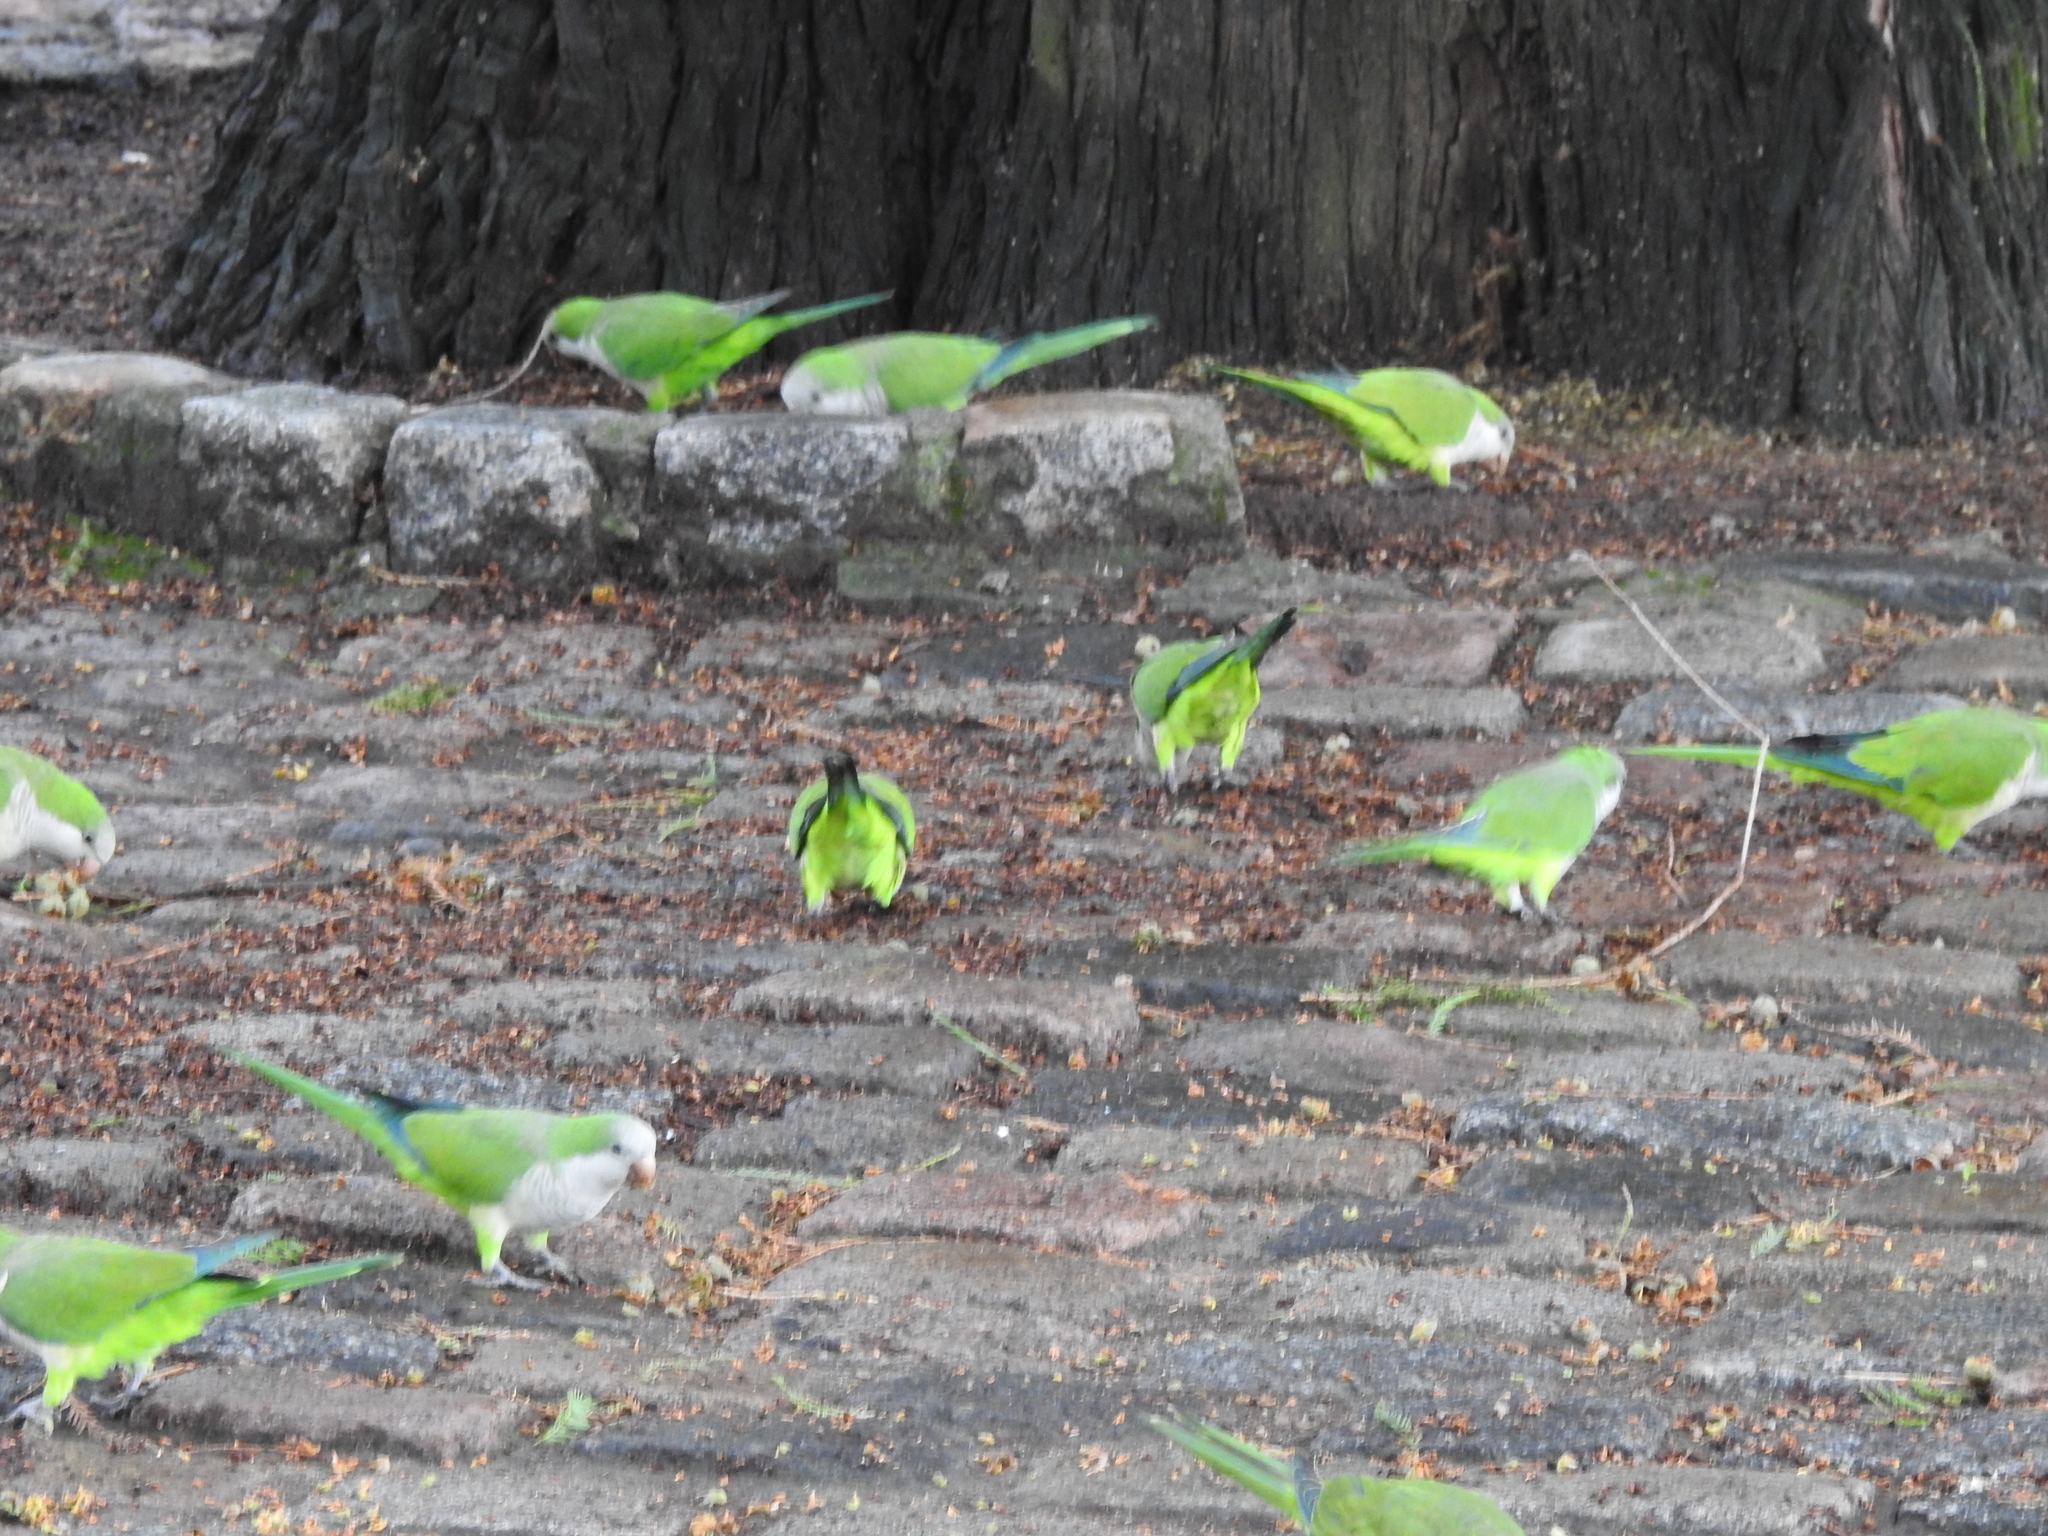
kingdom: Animalia
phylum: Chordata
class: Aves
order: Psittaciformes
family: Psittacidae
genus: Myiopsitta
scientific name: Myiopsitta monachus
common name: Monk parakeet
